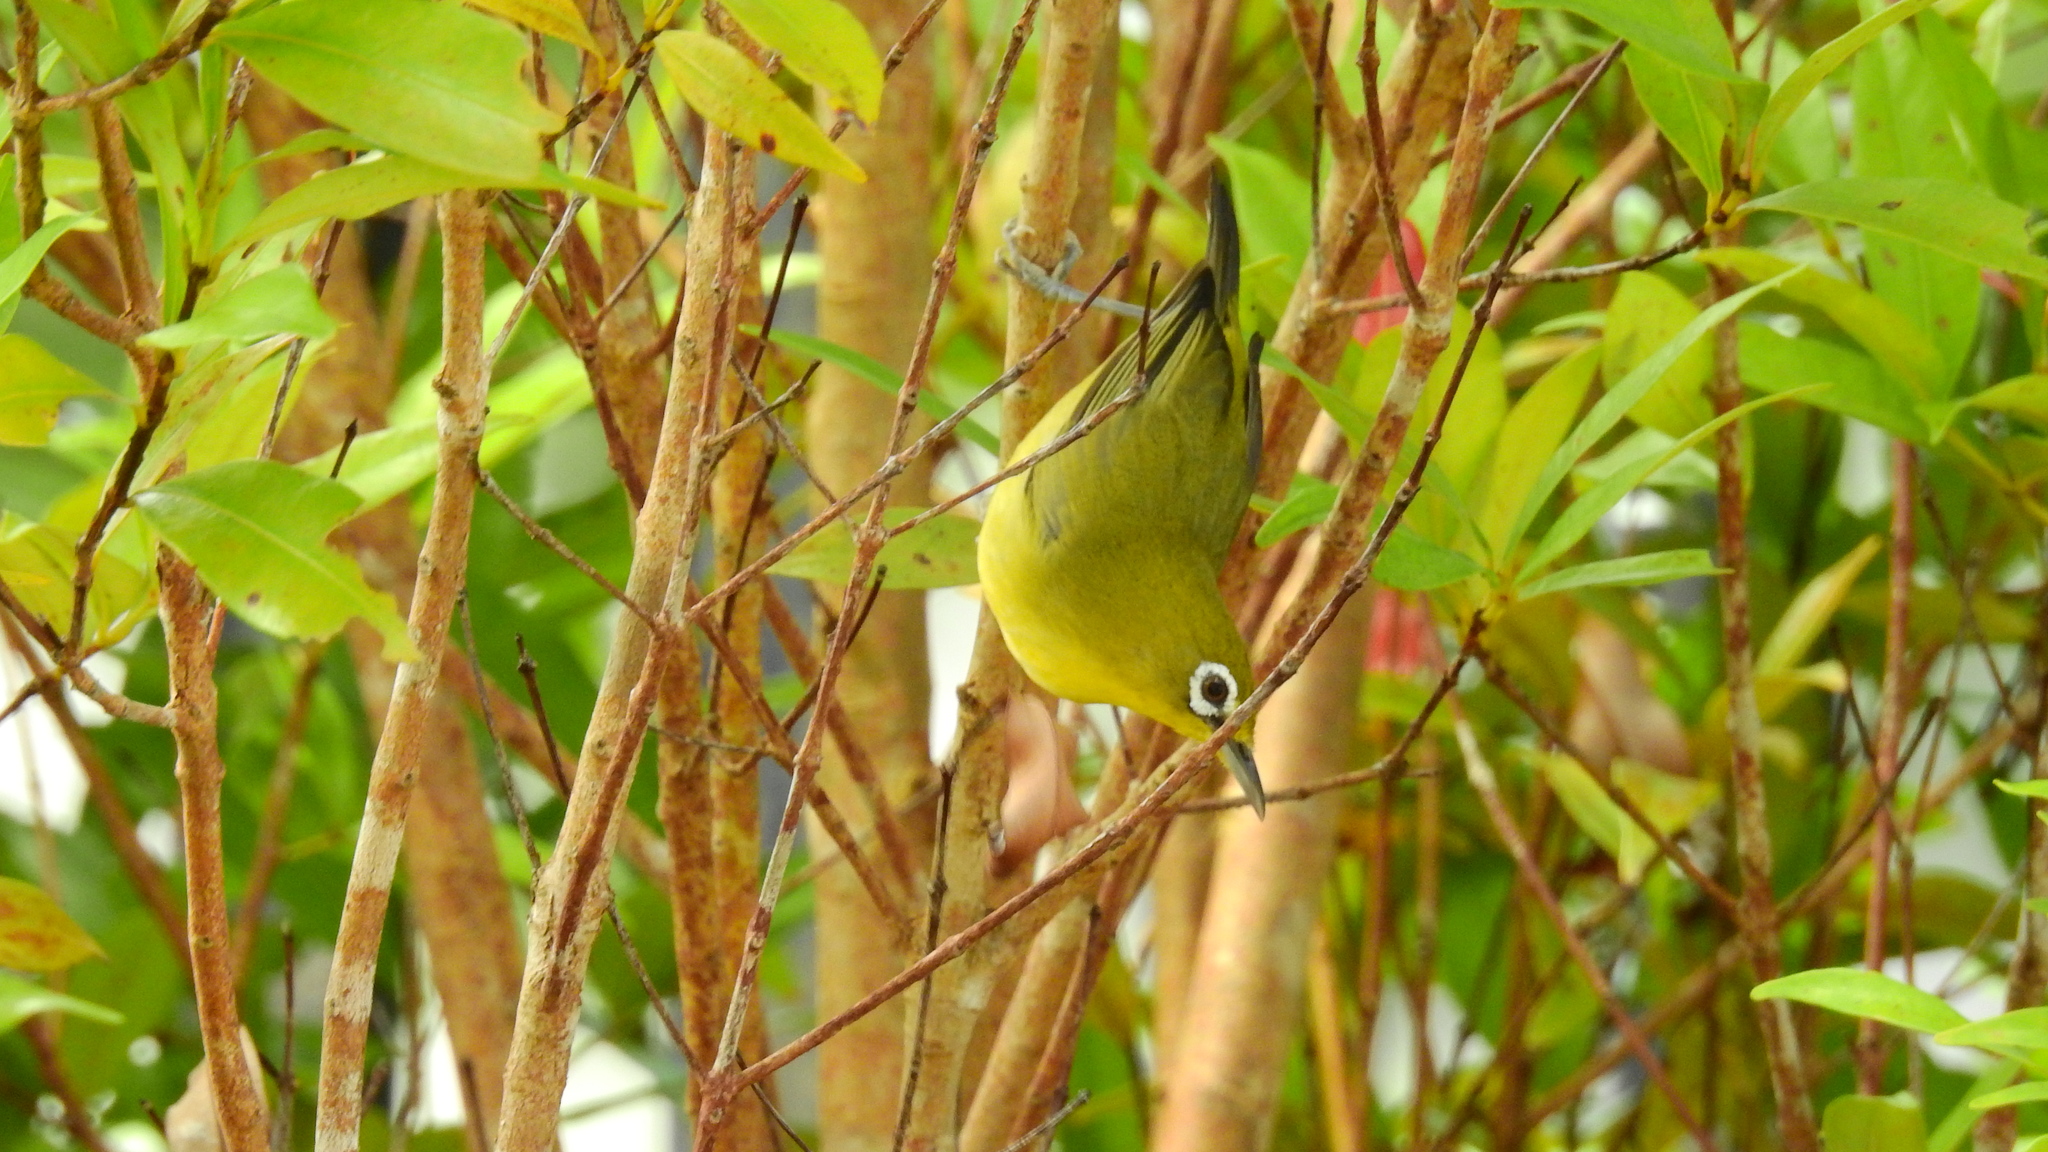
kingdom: Animalia
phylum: Chordata
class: Aves
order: Passeriformes
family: Zosteropidae
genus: Zosterops
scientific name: Zosterops chloris
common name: Lemon-bellied white-eye
